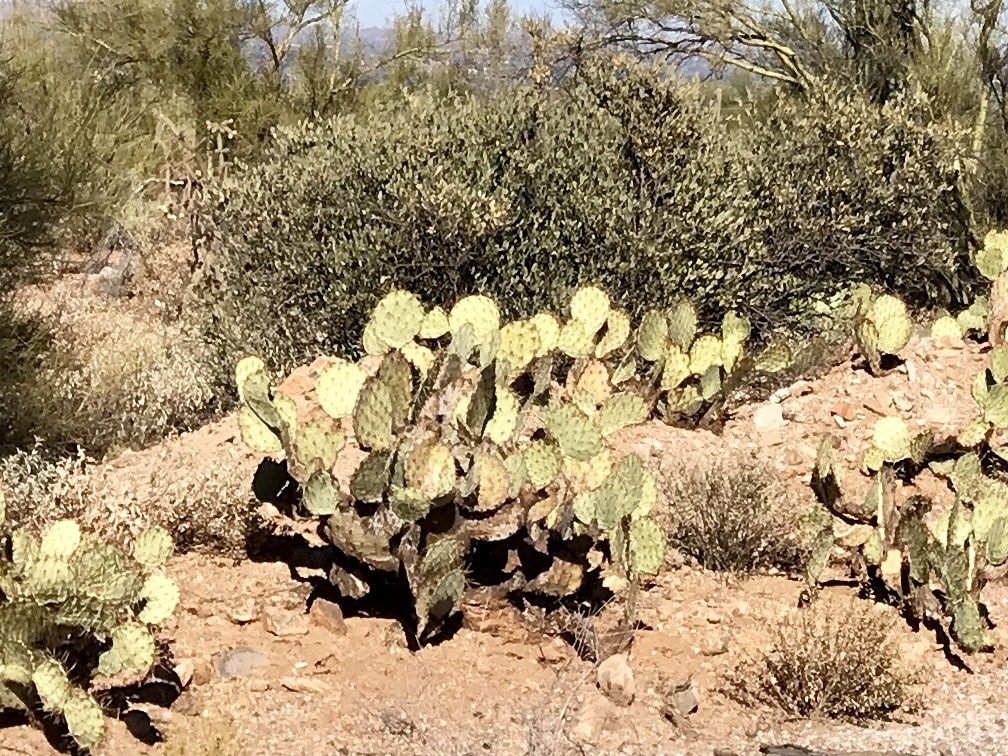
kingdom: Plantae
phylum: Tracheophyta
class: Magnoliopsida
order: Caryophyllales
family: Cactaceae
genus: Opuntia
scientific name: Opuntia phaeacantha
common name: New mexico prickly-pear
